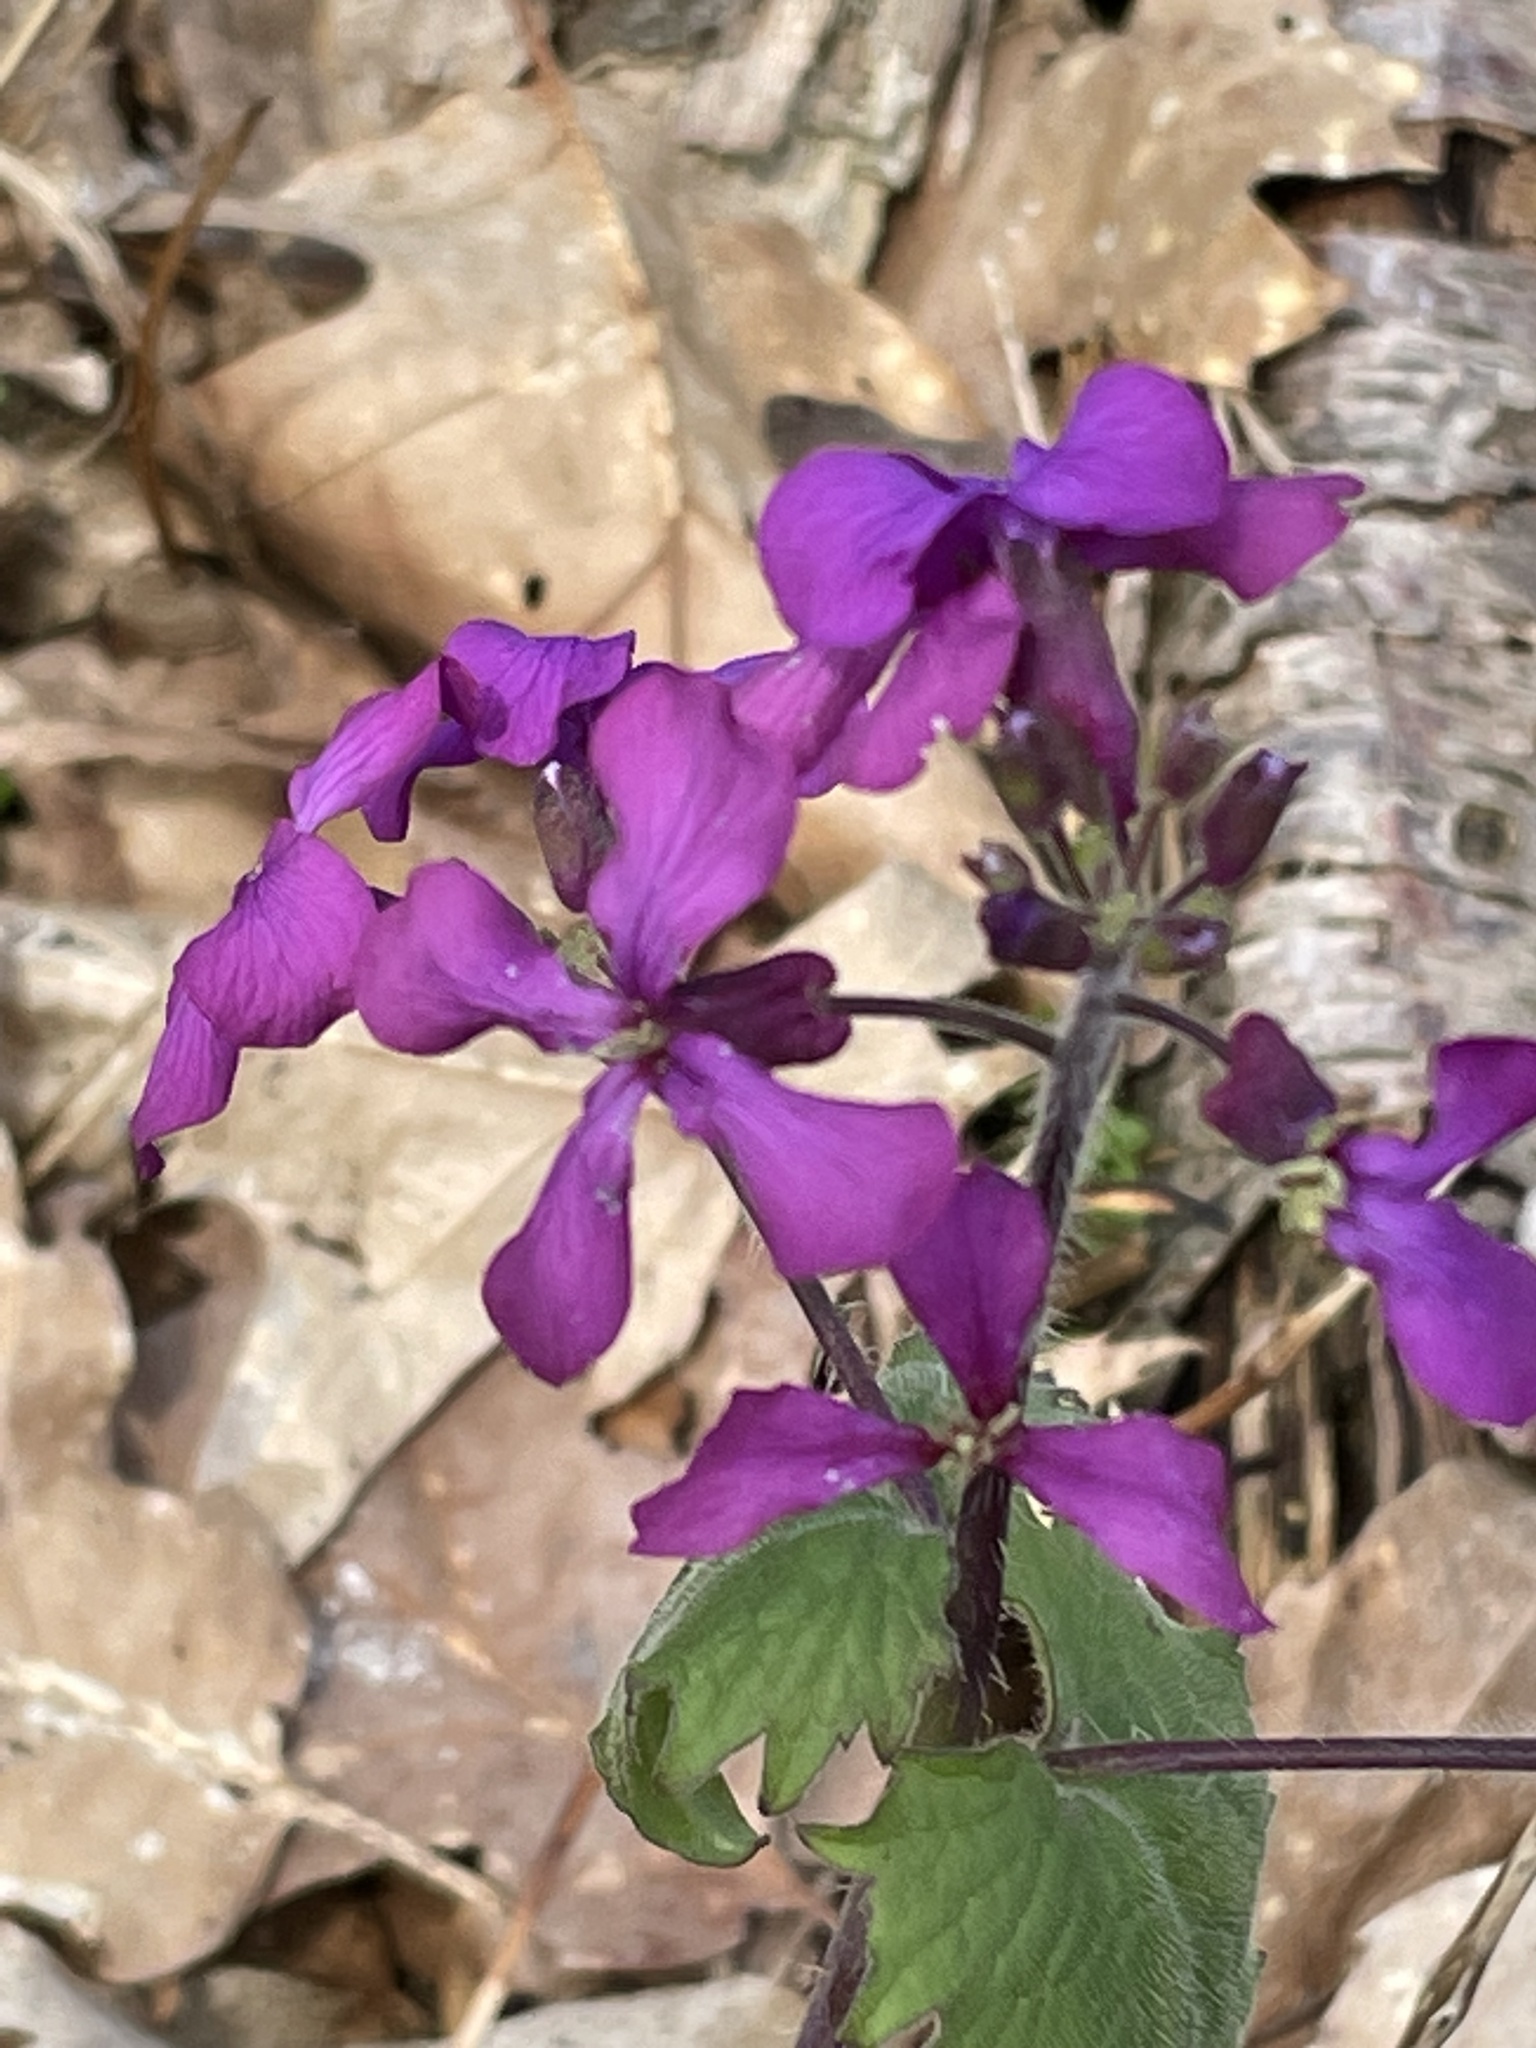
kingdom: Plantae
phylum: Tracheophyta
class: Magnoliopsida
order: Brassicales
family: Brassicaceae
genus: Lunaria
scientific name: Lunaria annua
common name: Honesty
